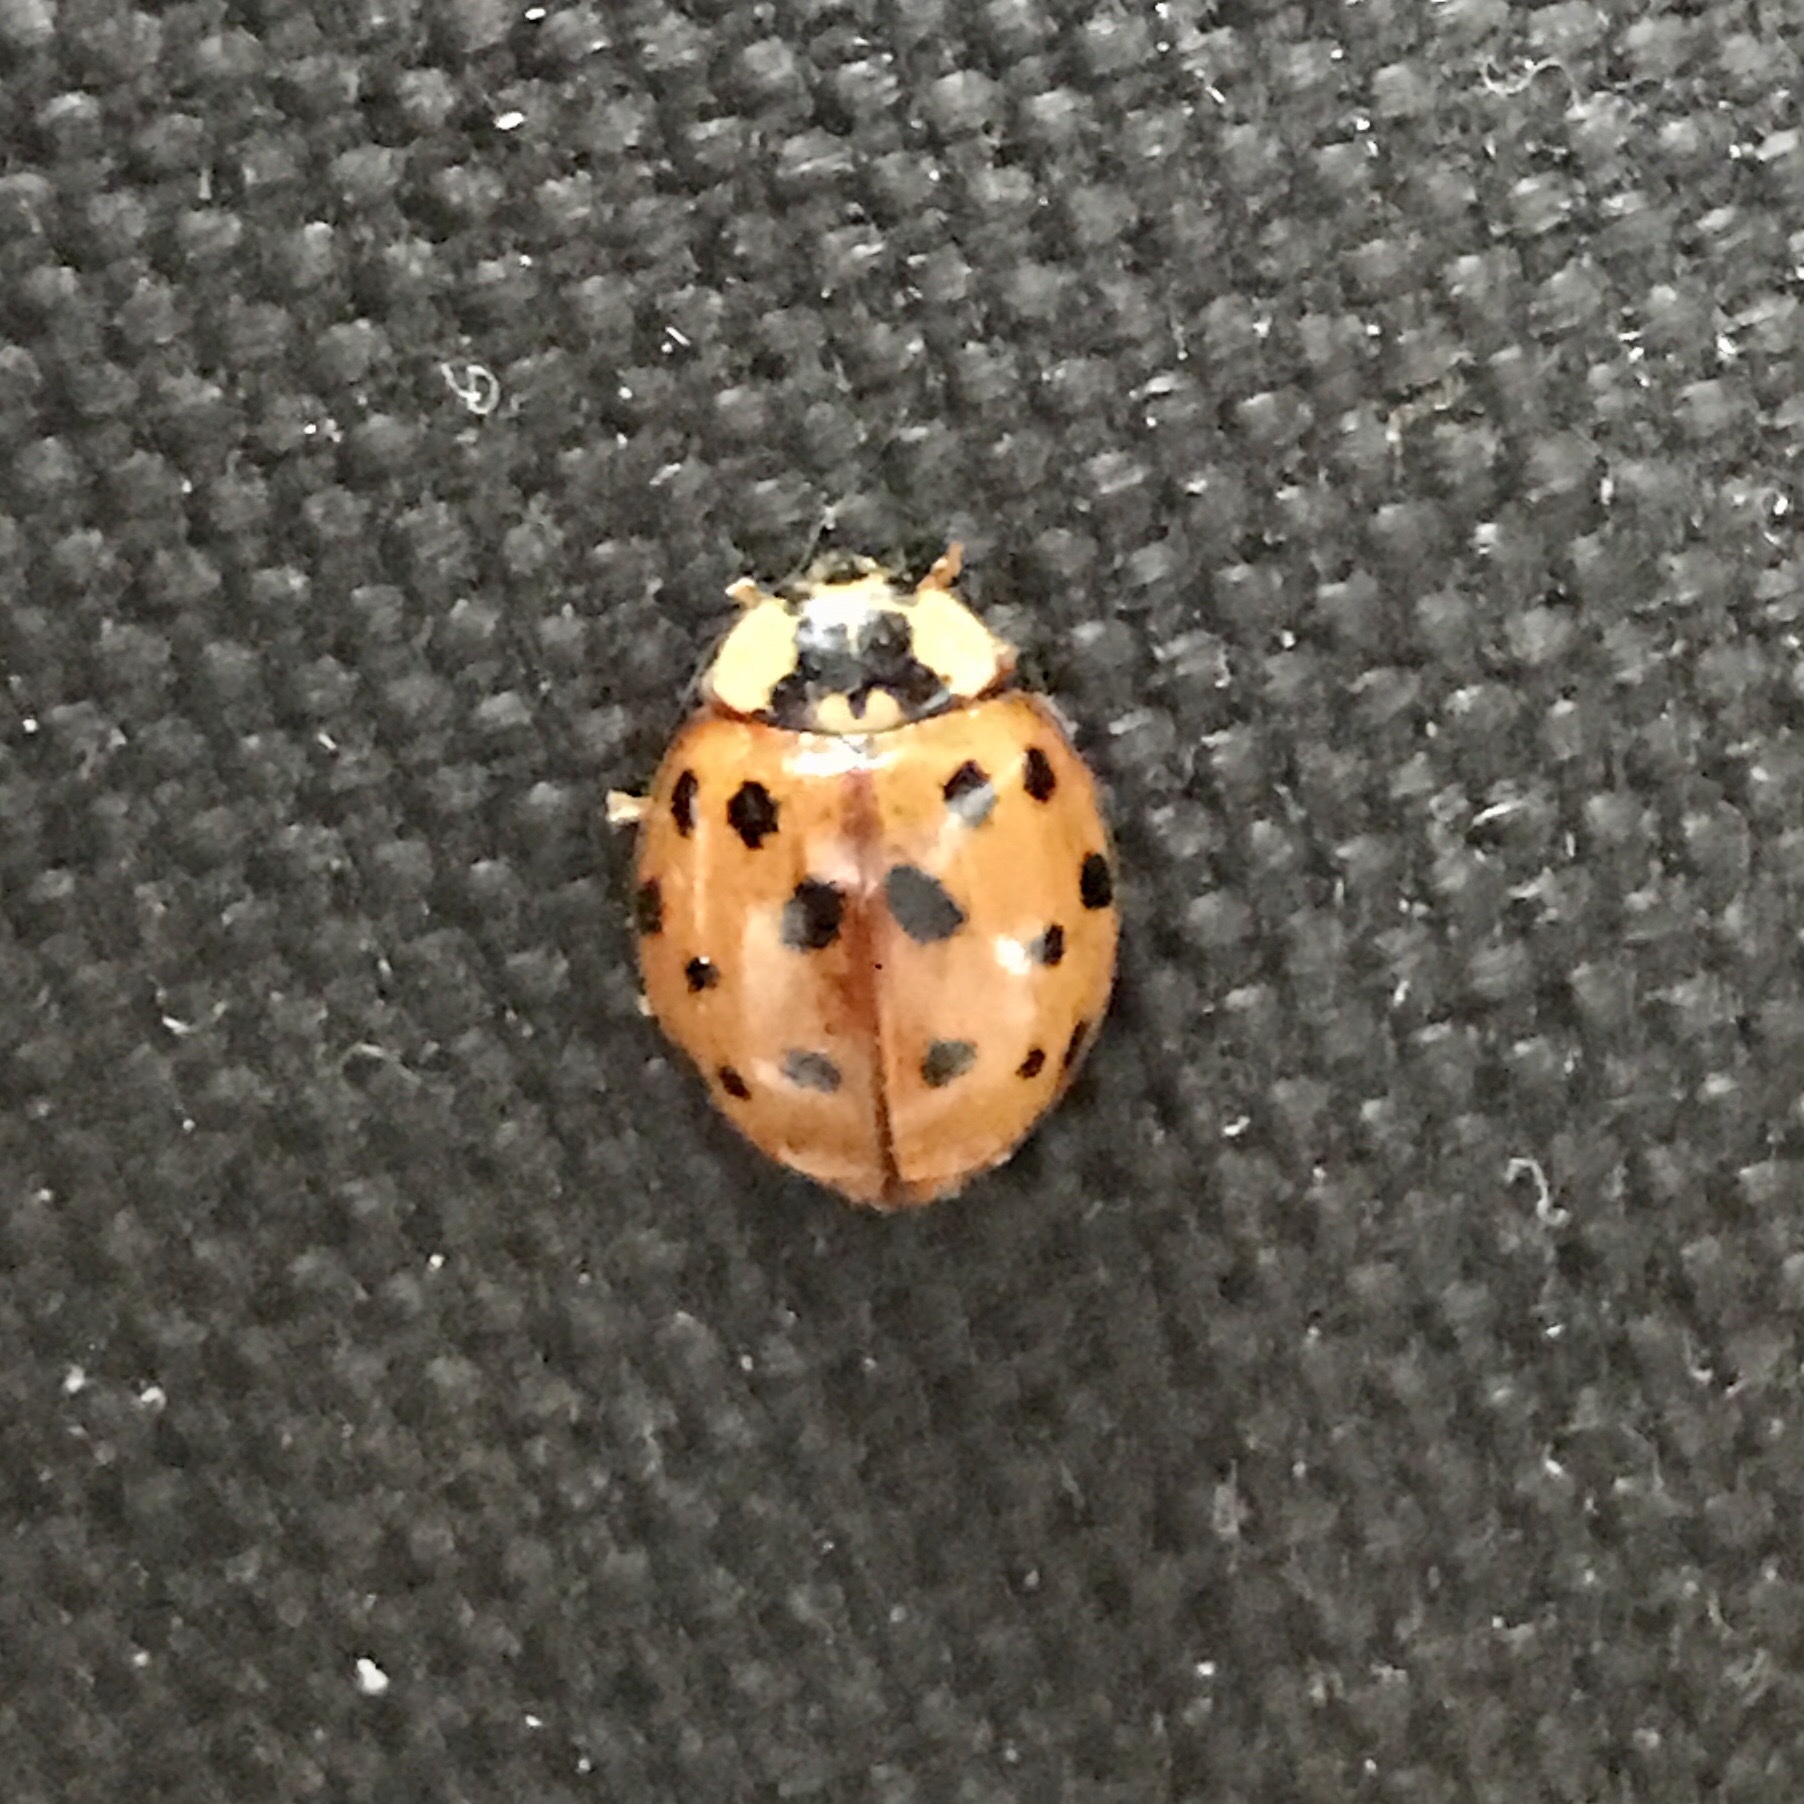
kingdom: Animalia
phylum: Arthropoda
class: Insecta
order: Coleoptera
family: Coccinellidae
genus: Harmonia
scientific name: Harmonia axyridis
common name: Harlequin ladybird
